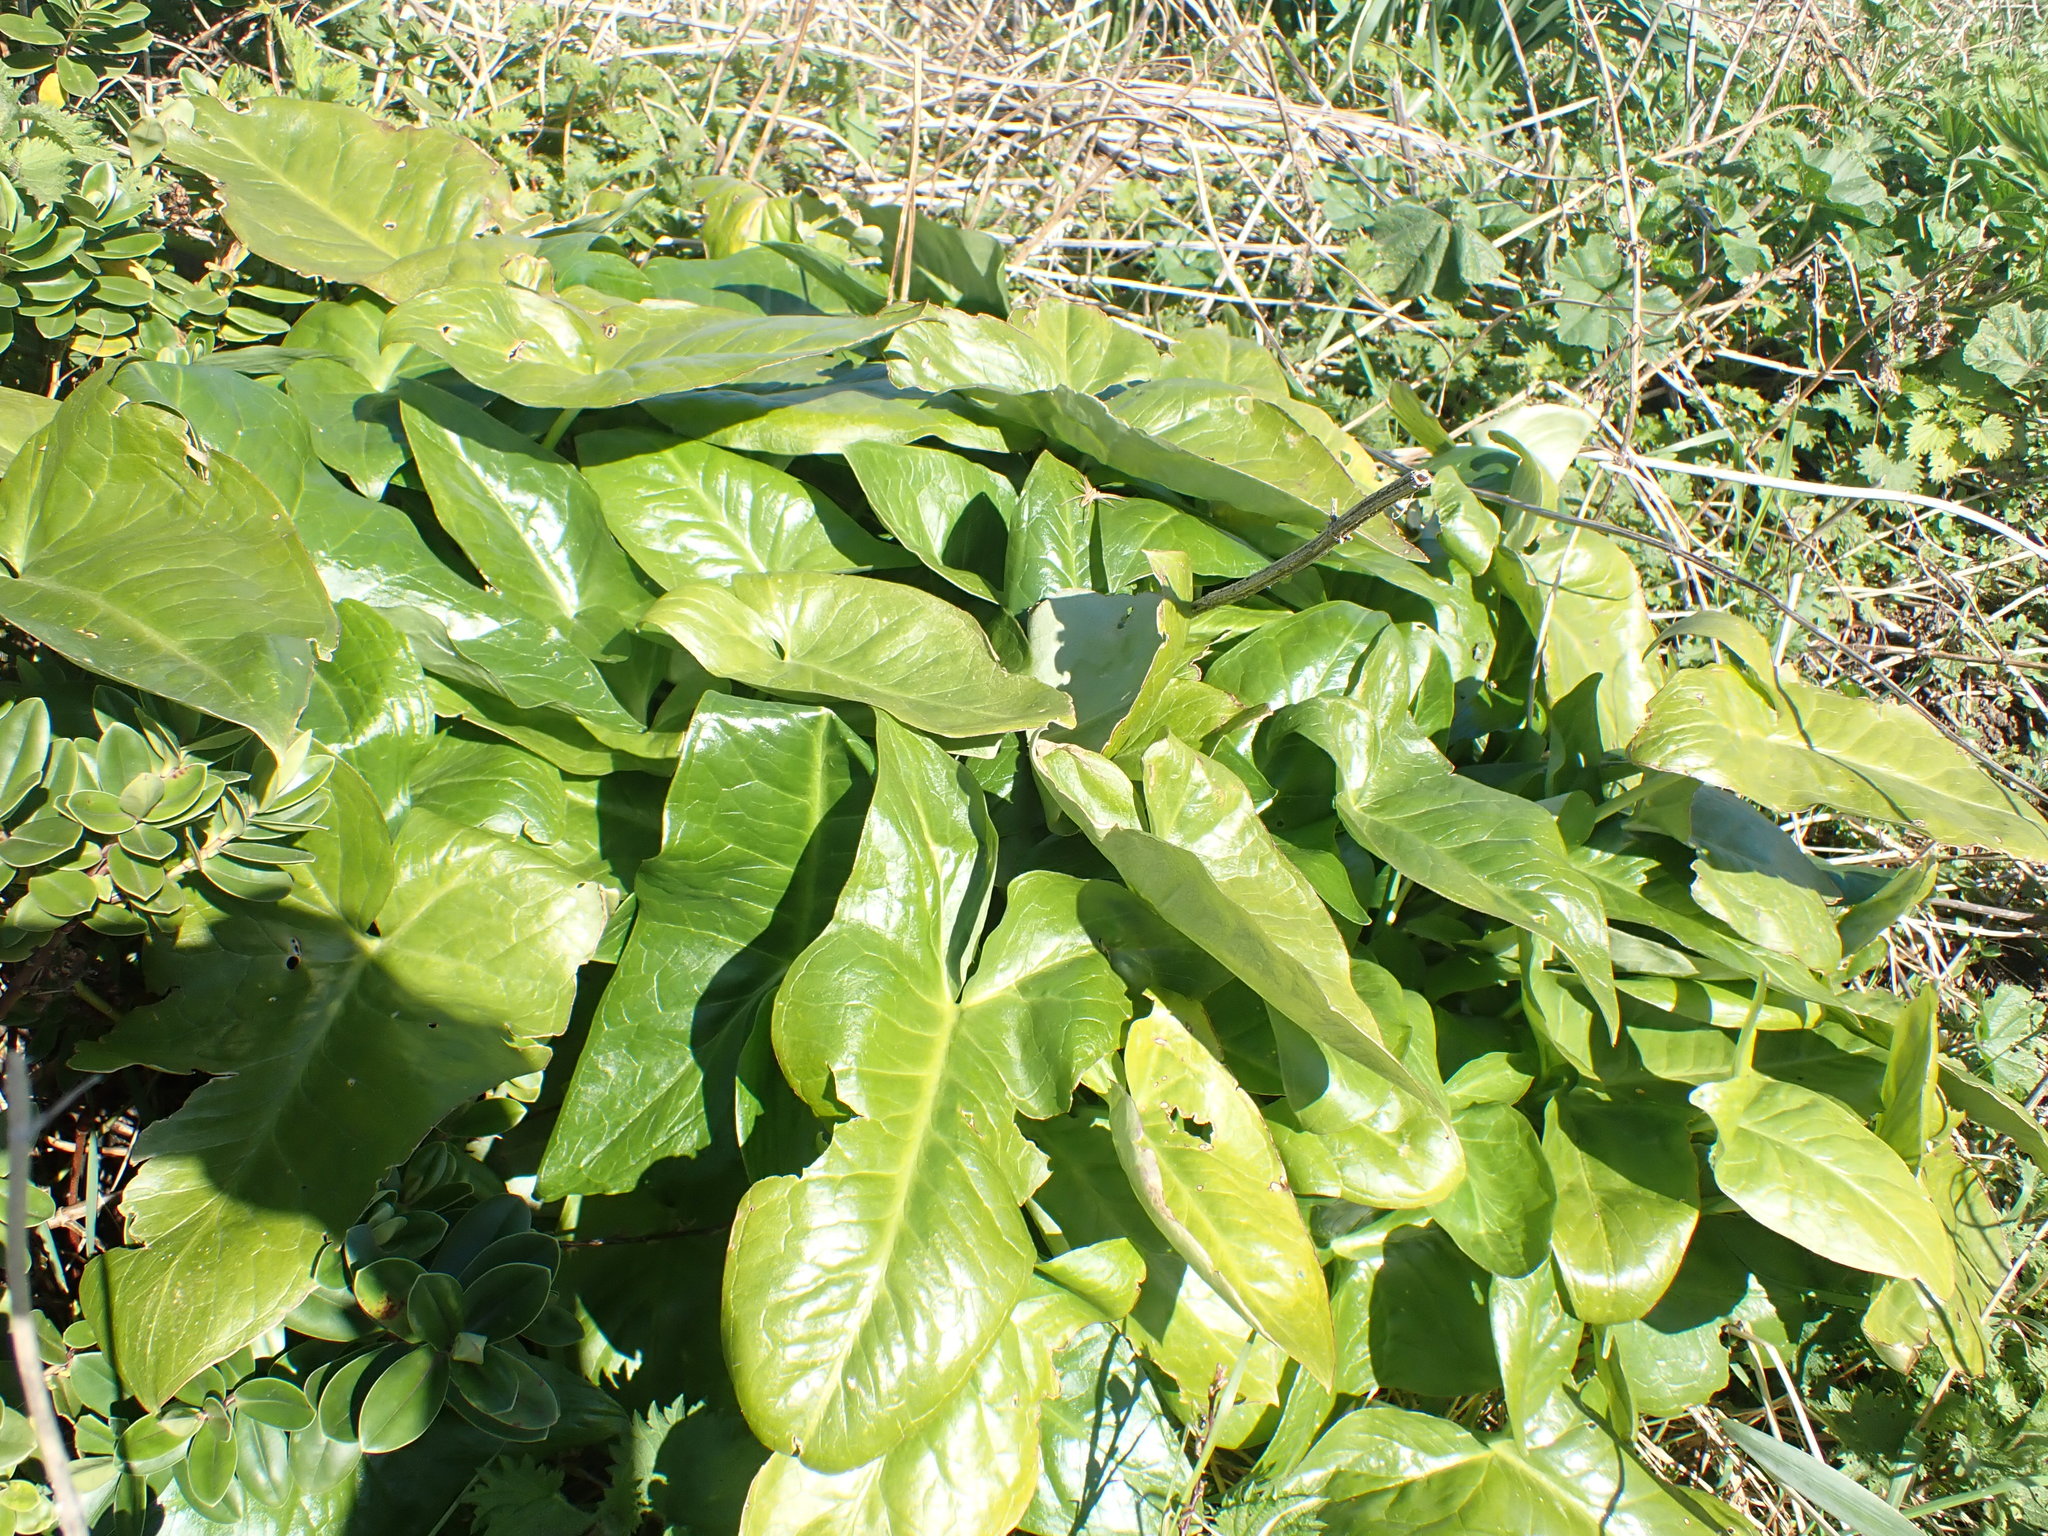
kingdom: Plantae
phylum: Tracheophyta
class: Liliopsida
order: Alismatales
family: Araceae
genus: Arum
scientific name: Arum maculatum
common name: Lords-and-ladies
